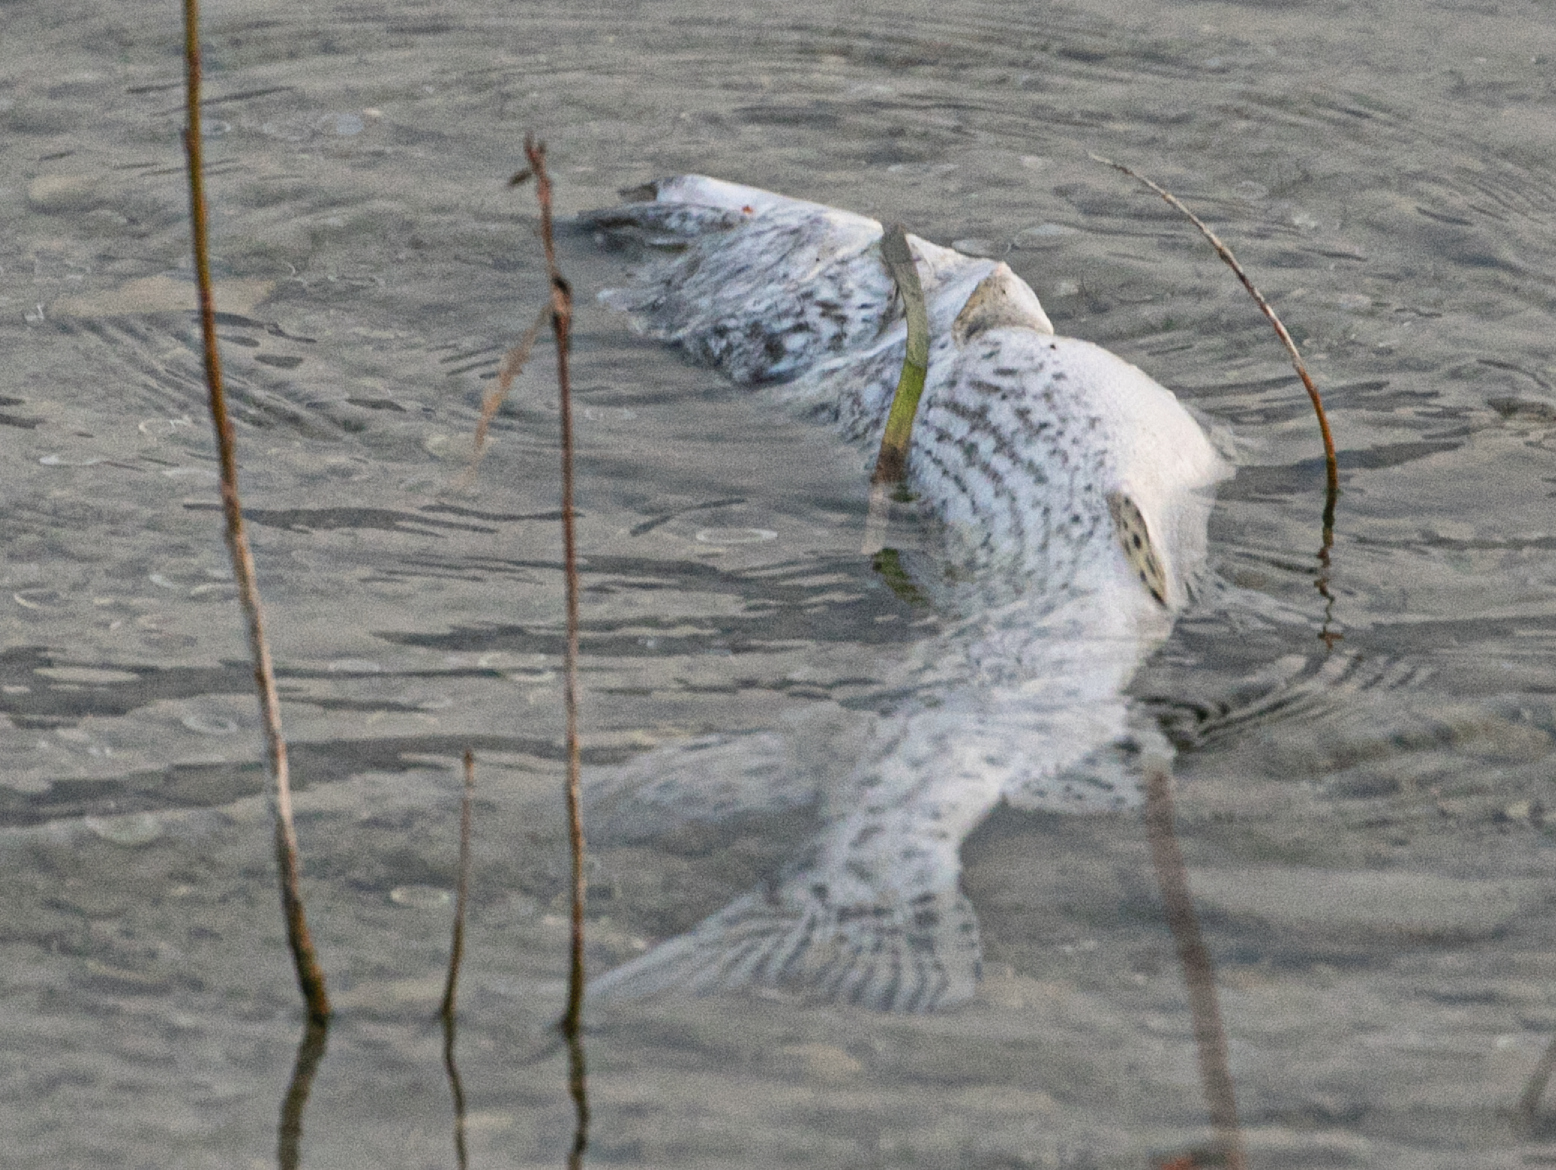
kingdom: Animalia
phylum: Chordata
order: Esociformes
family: Esocidae
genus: Esox
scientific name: Esox cisalpinus
